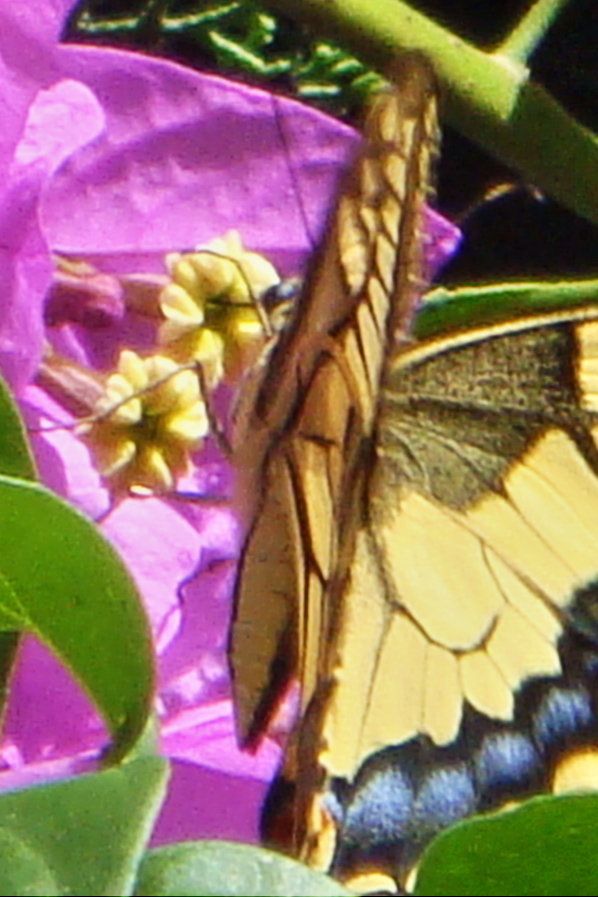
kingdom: Animalia
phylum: Arthropoda
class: Insecta
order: Lepidoptera
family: Papilionidae
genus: Papilio
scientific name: Papilio machaon
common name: Swallowtail
